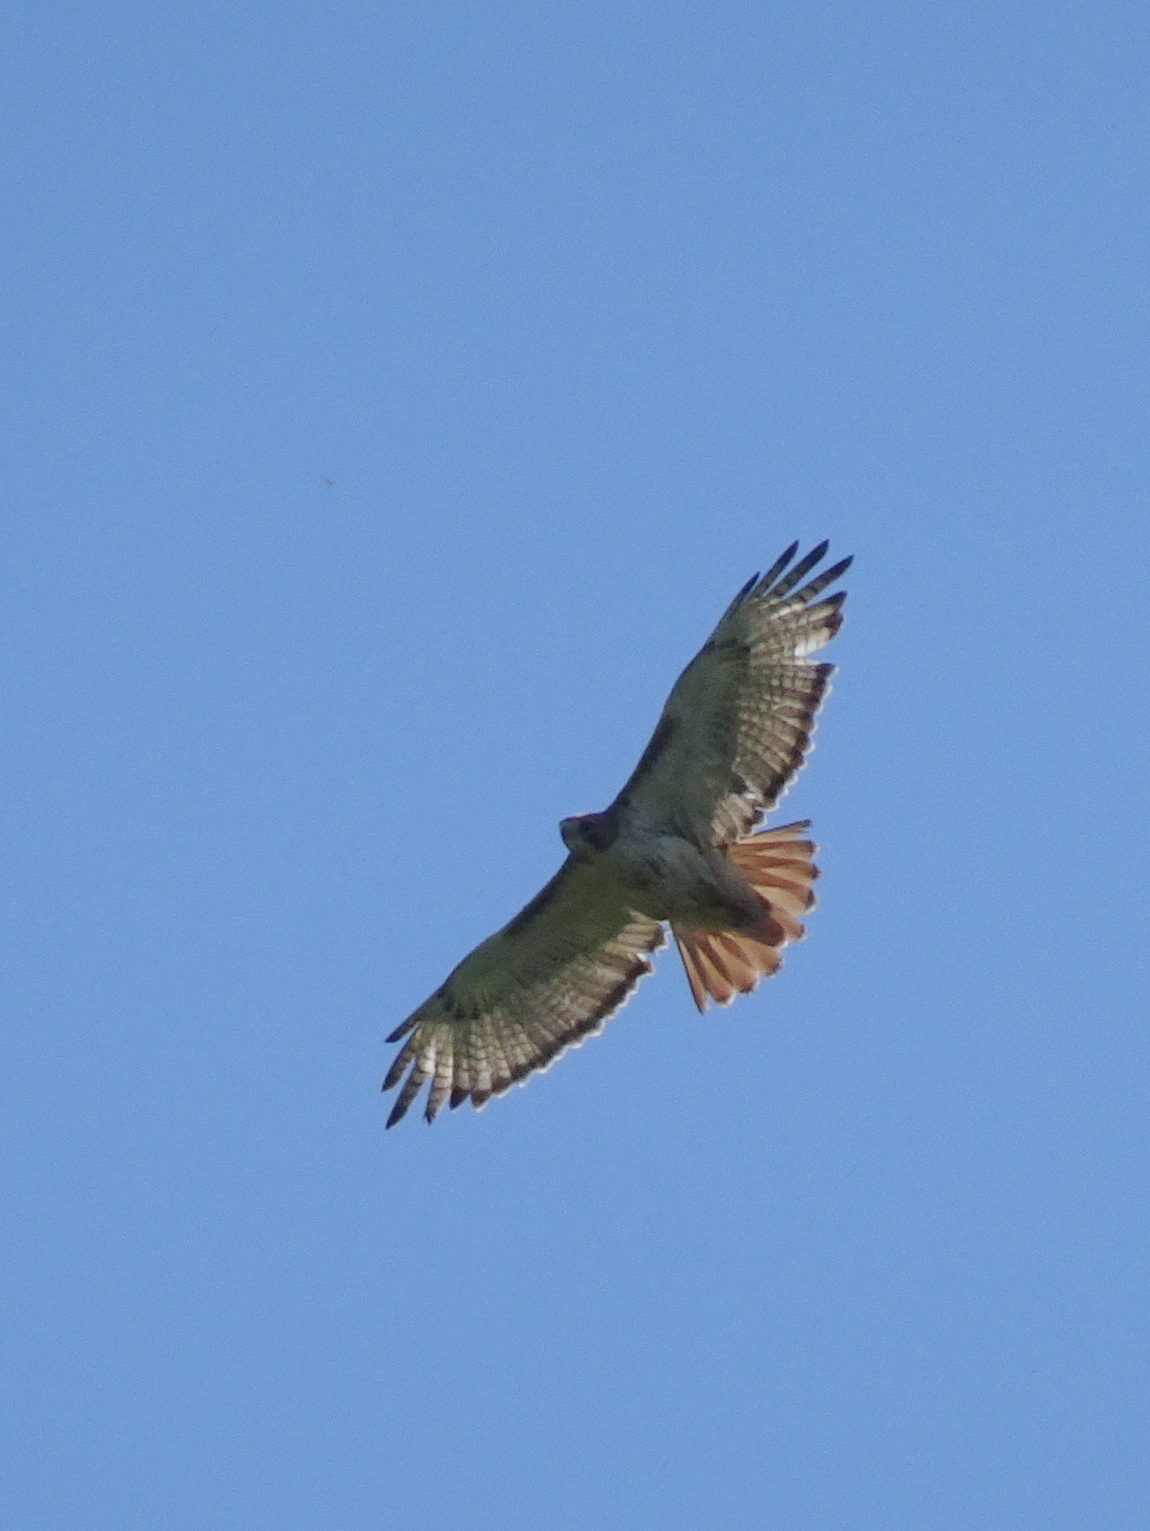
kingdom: Animalia
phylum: Chordata
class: Aves
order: Accipitriformes
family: Accipitridae
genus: Buteo
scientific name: Buteo jamaicensis
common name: Red-tailed hawk
